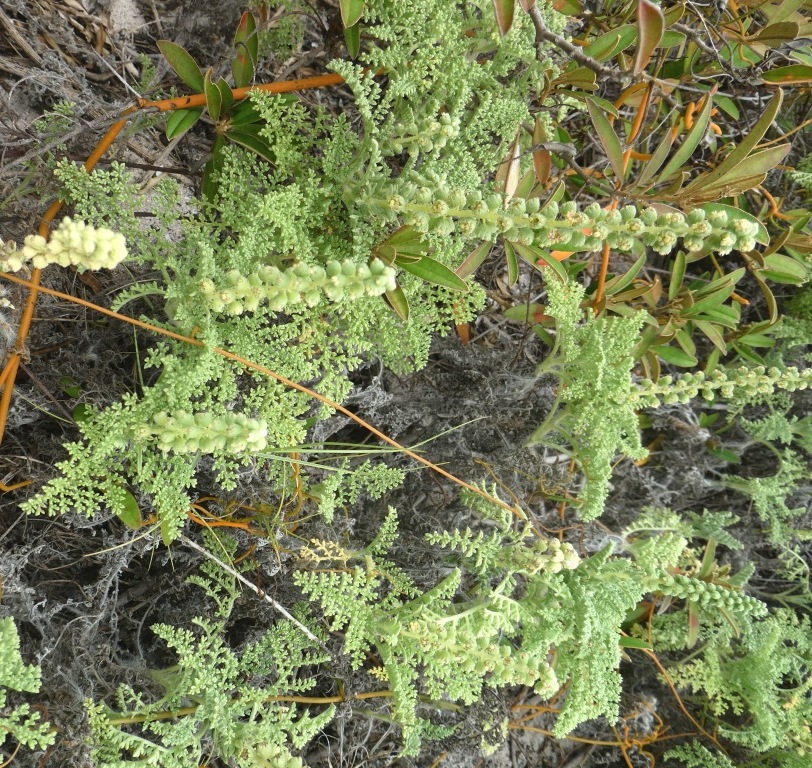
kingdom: Plantae
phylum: Tracheophyta
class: Magnoliopsida
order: Asterales
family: Asteraceae
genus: Ambrosia
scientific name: Ambrosia hispida
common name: Coastal ragweed
